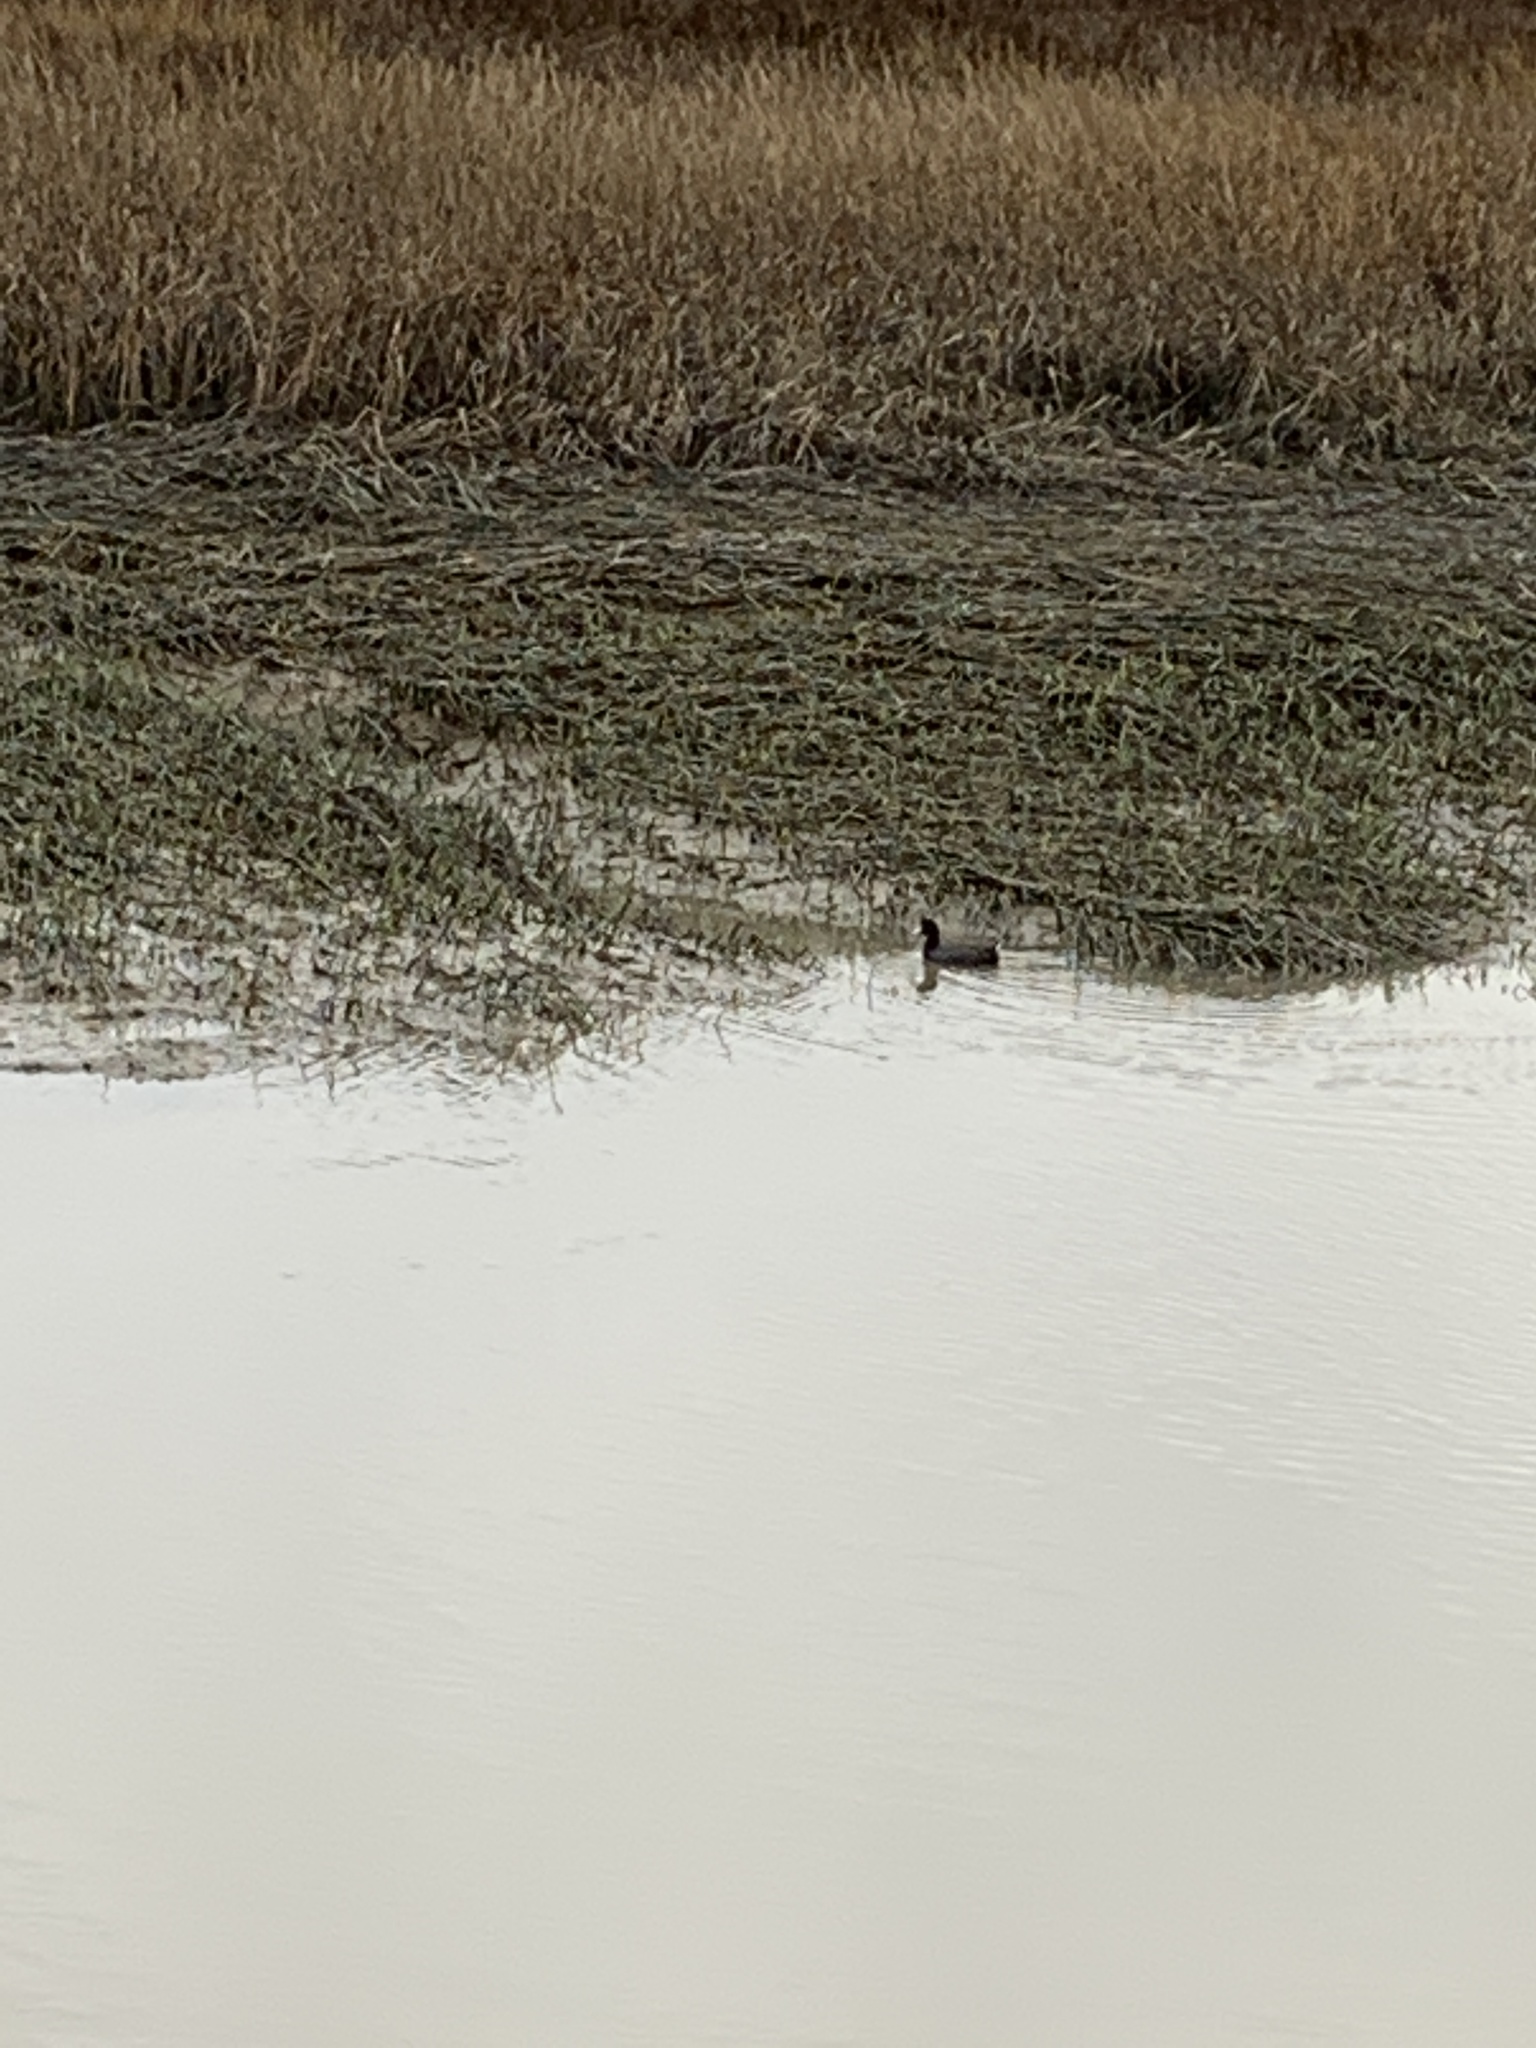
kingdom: Animalia
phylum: Chordata
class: Aves
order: Gruiformes
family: Rallidae
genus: Fulica
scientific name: Fulica americana
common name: American coot
